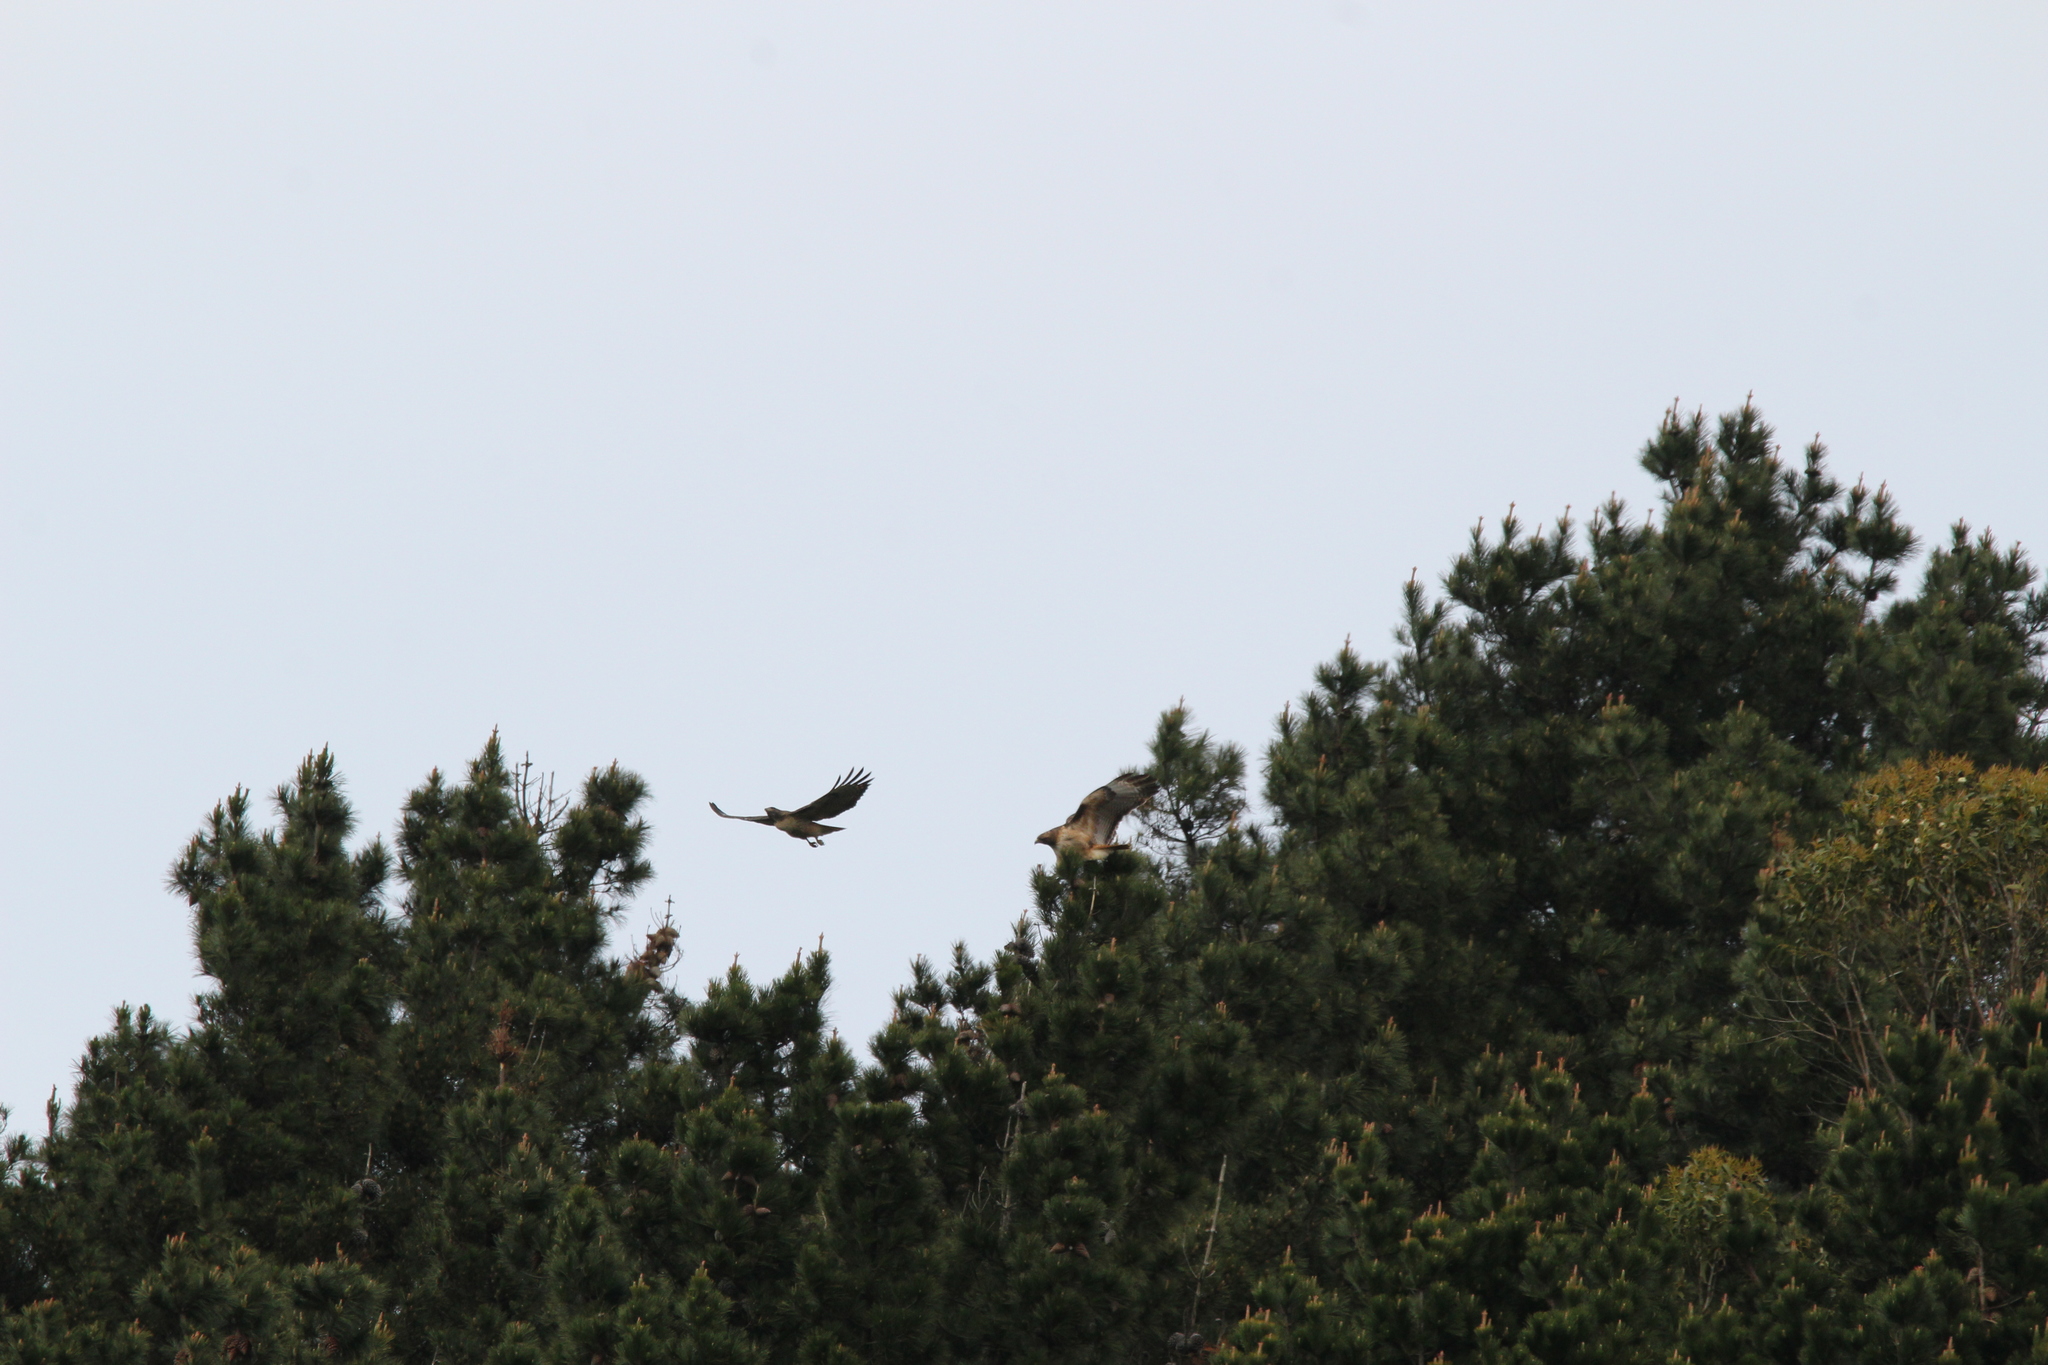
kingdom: Animalia
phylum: Chordata
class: Aves
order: Accipitriformes
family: Accipitridae
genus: Buteo
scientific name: Buteo jamaicensis
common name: Red-tailed hawk
